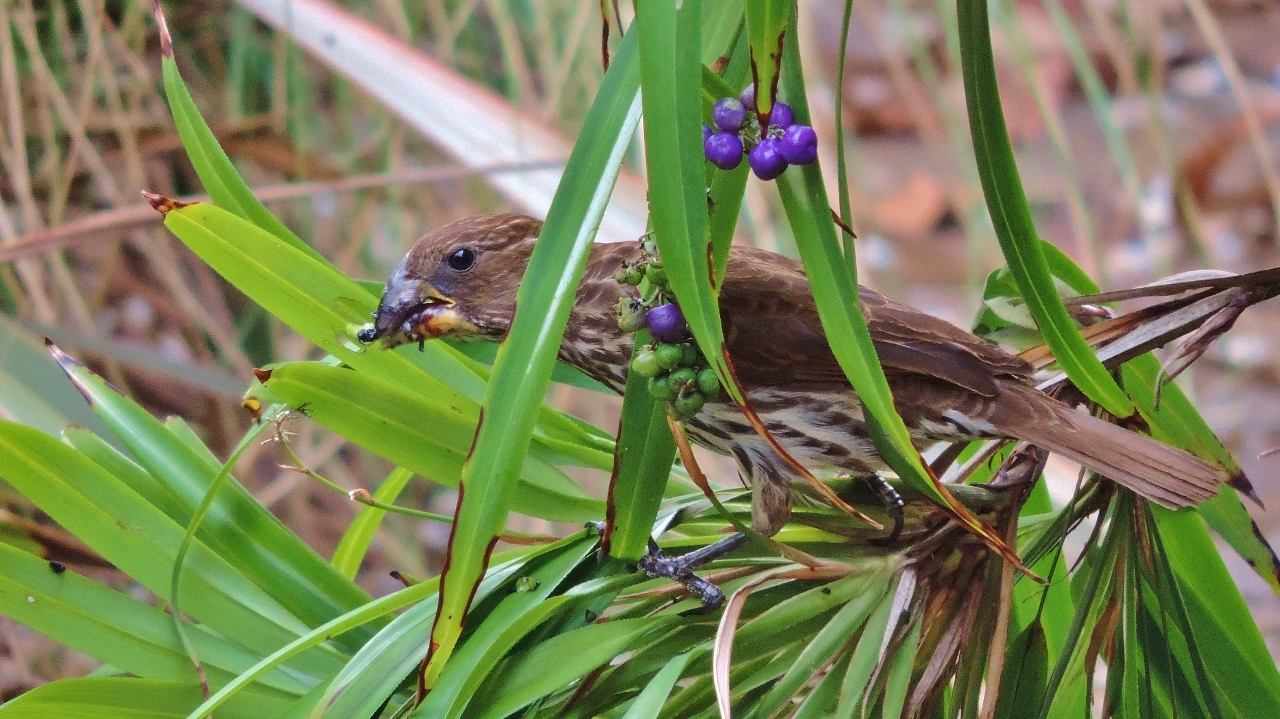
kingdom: Animalia
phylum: Chordata
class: Aves
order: Passeriformes
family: Ploceidae
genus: Amblyospiza
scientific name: Amblyospiza albifrons
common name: Thick-billed weaver
